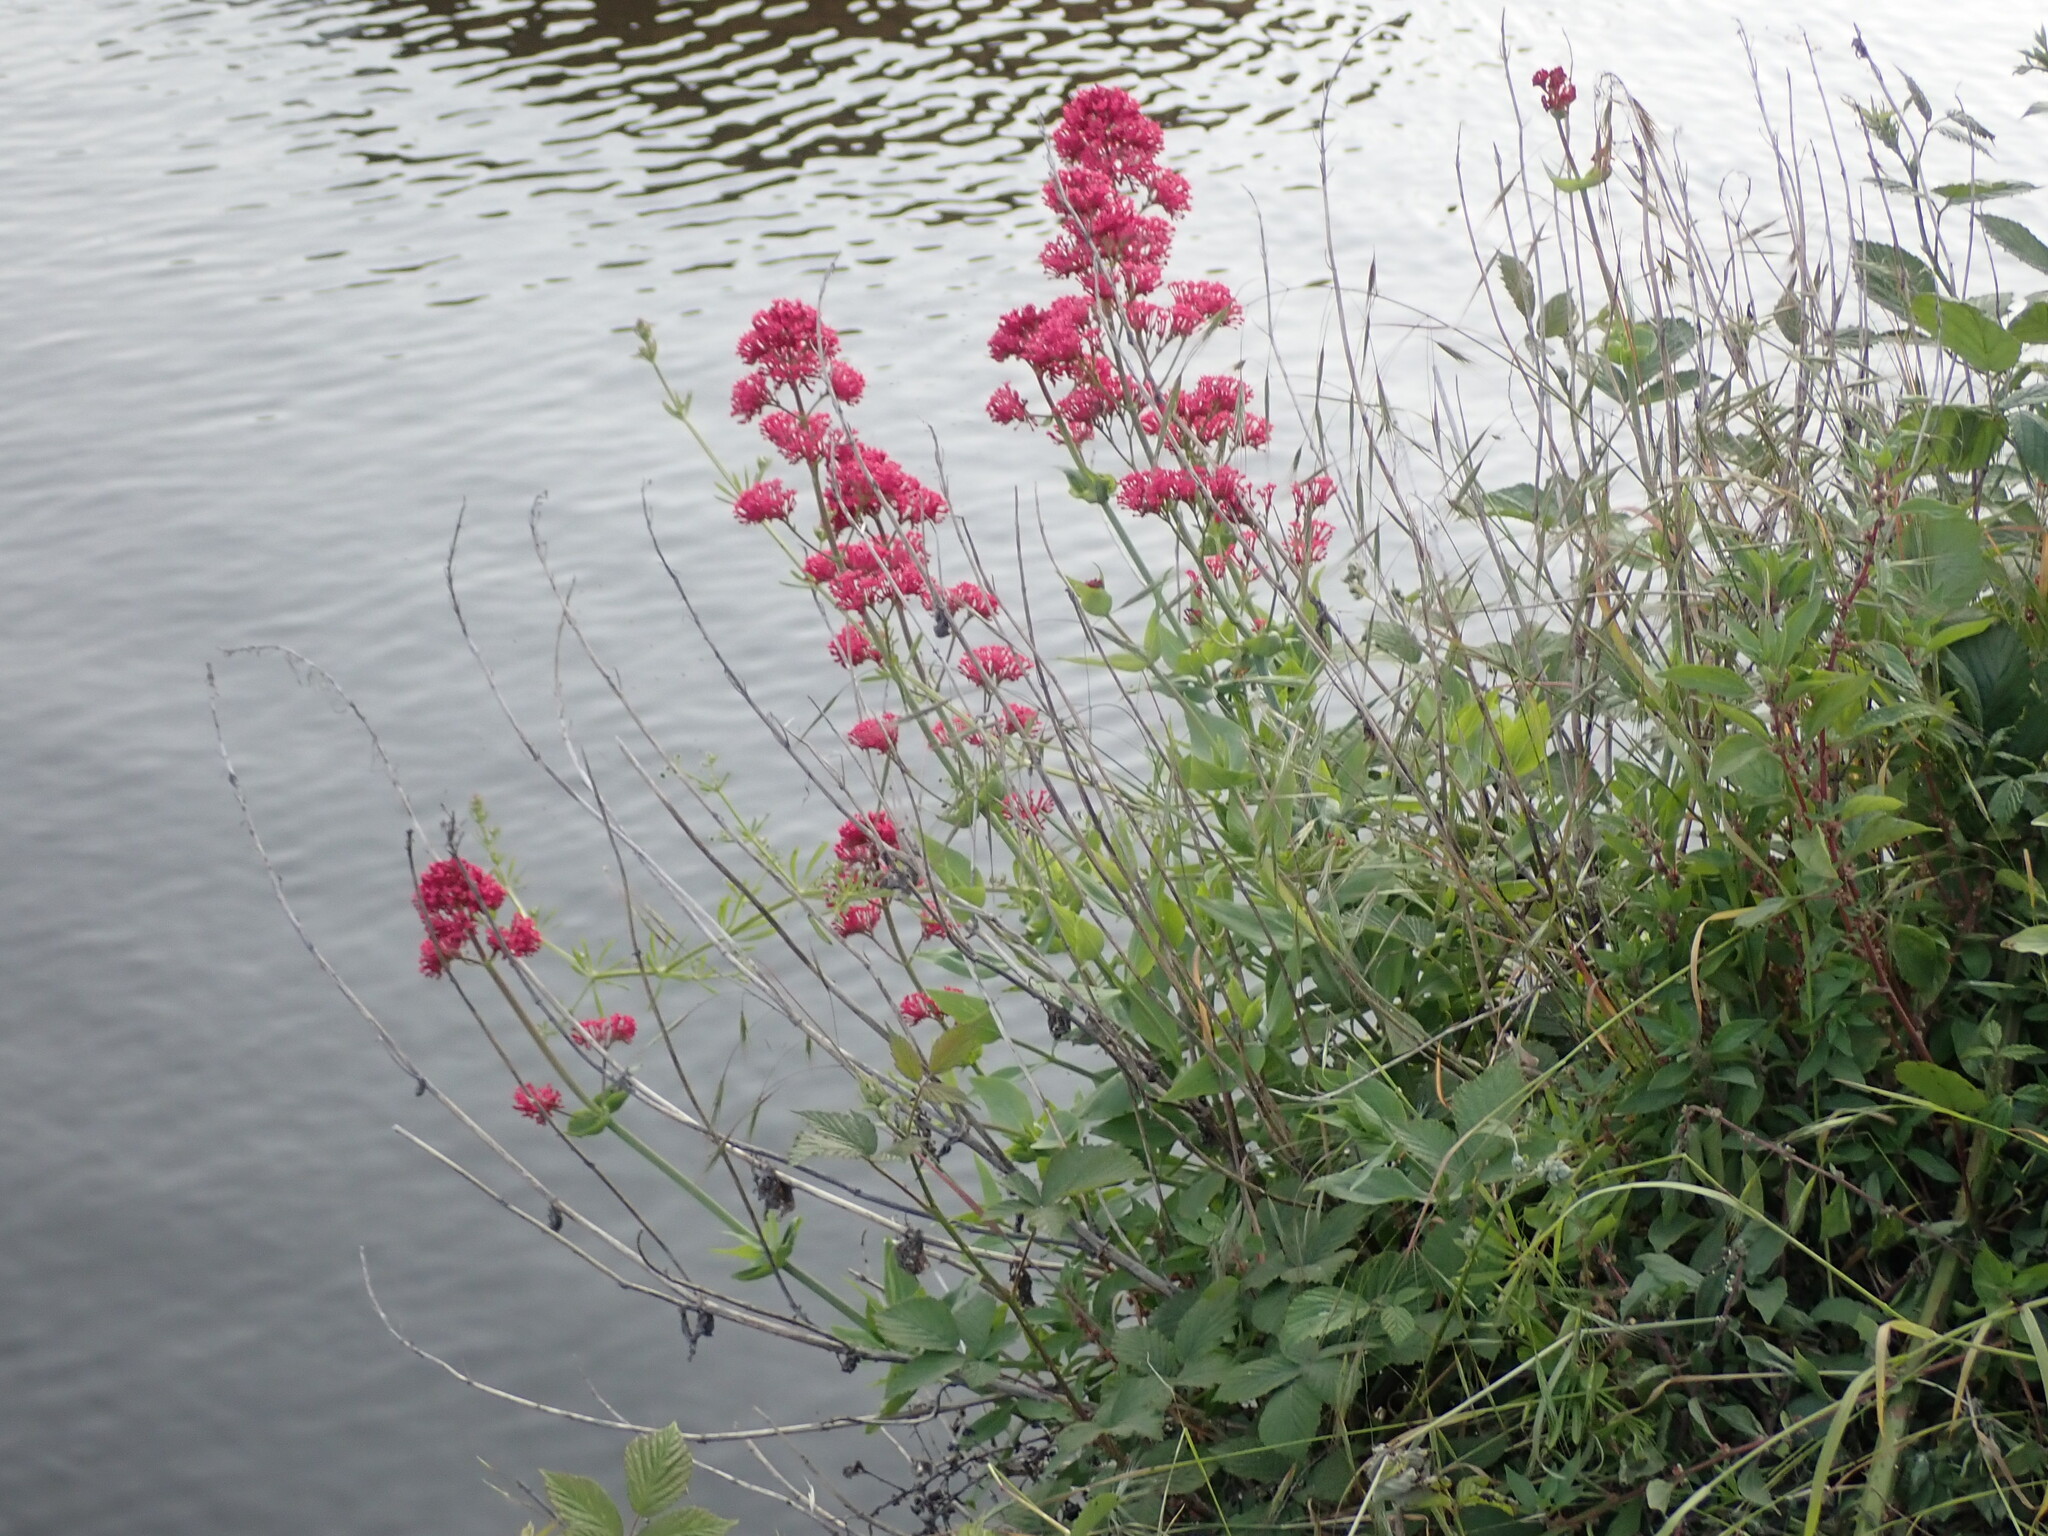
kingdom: Plantae
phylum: Tracheophyta
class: Magnoliopsida
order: Dipsacales
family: Caprifoliaceae
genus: Centranthus
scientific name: Centranthus ruber
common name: Red valerian
